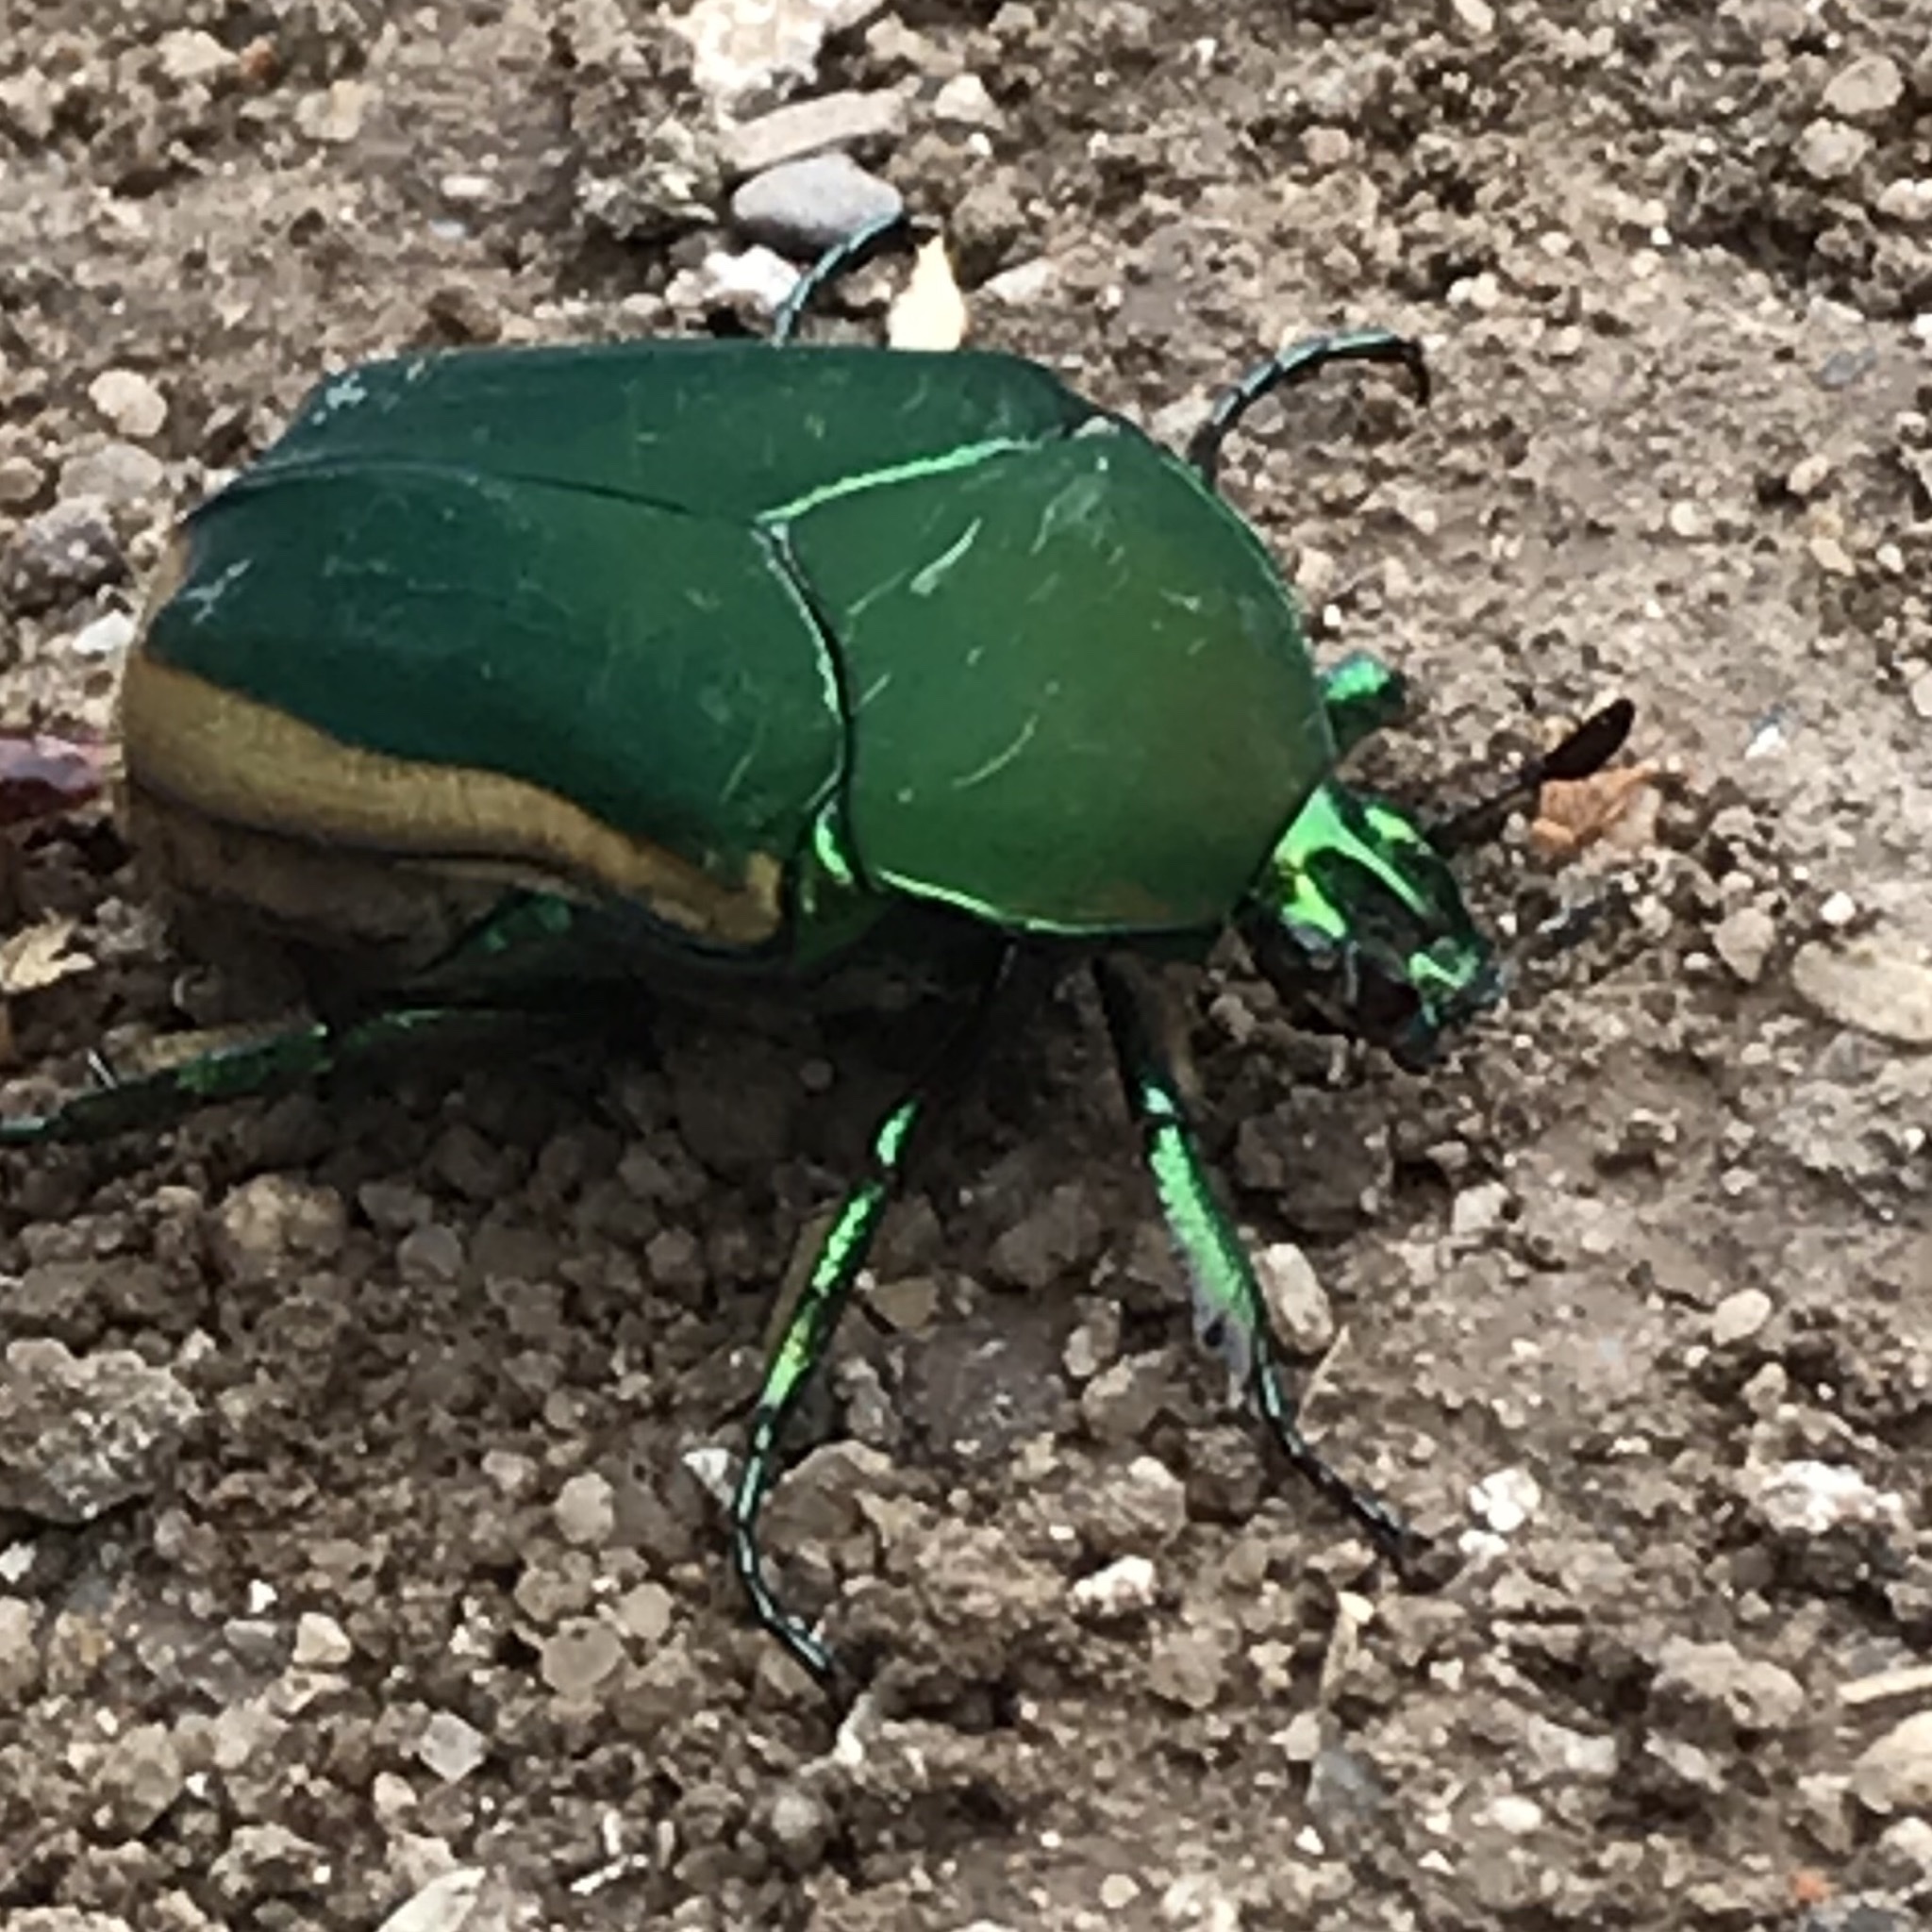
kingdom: Animalia
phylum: Arthropoda
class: Insecta
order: Coleoptera
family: Scarabaeidae
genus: Cotinis
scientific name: Cotinis mutabilis
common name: Figeater beetle
